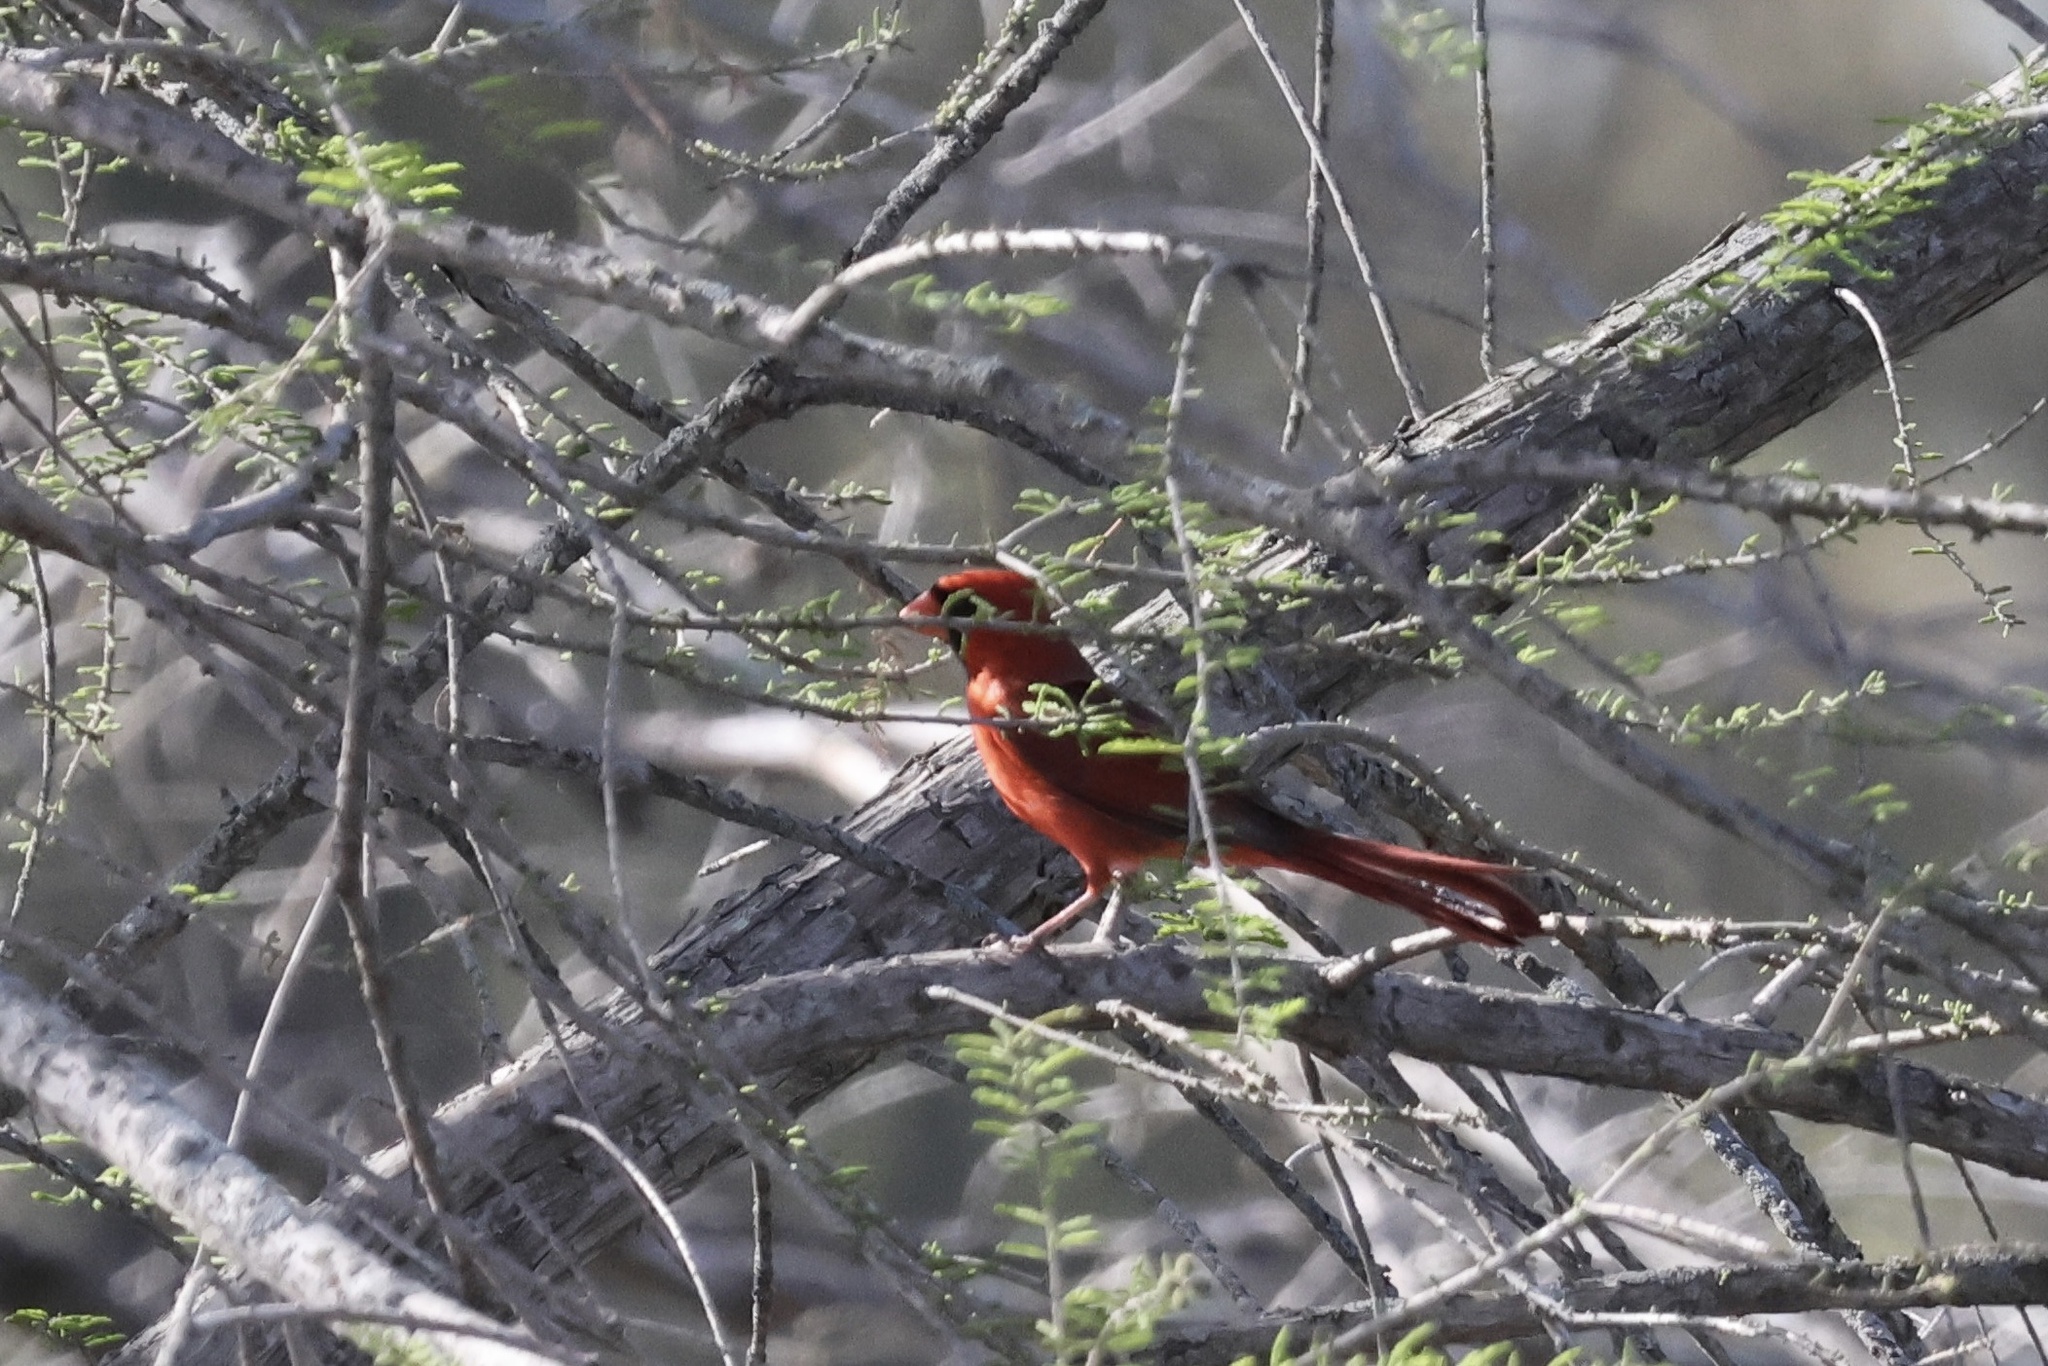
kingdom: Animalia
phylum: Chordata
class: Aves
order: Passeriformes
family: Cardinalidae
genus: Cardinalis
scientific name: Cardinalis cardinalis
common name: Northern cardinal
